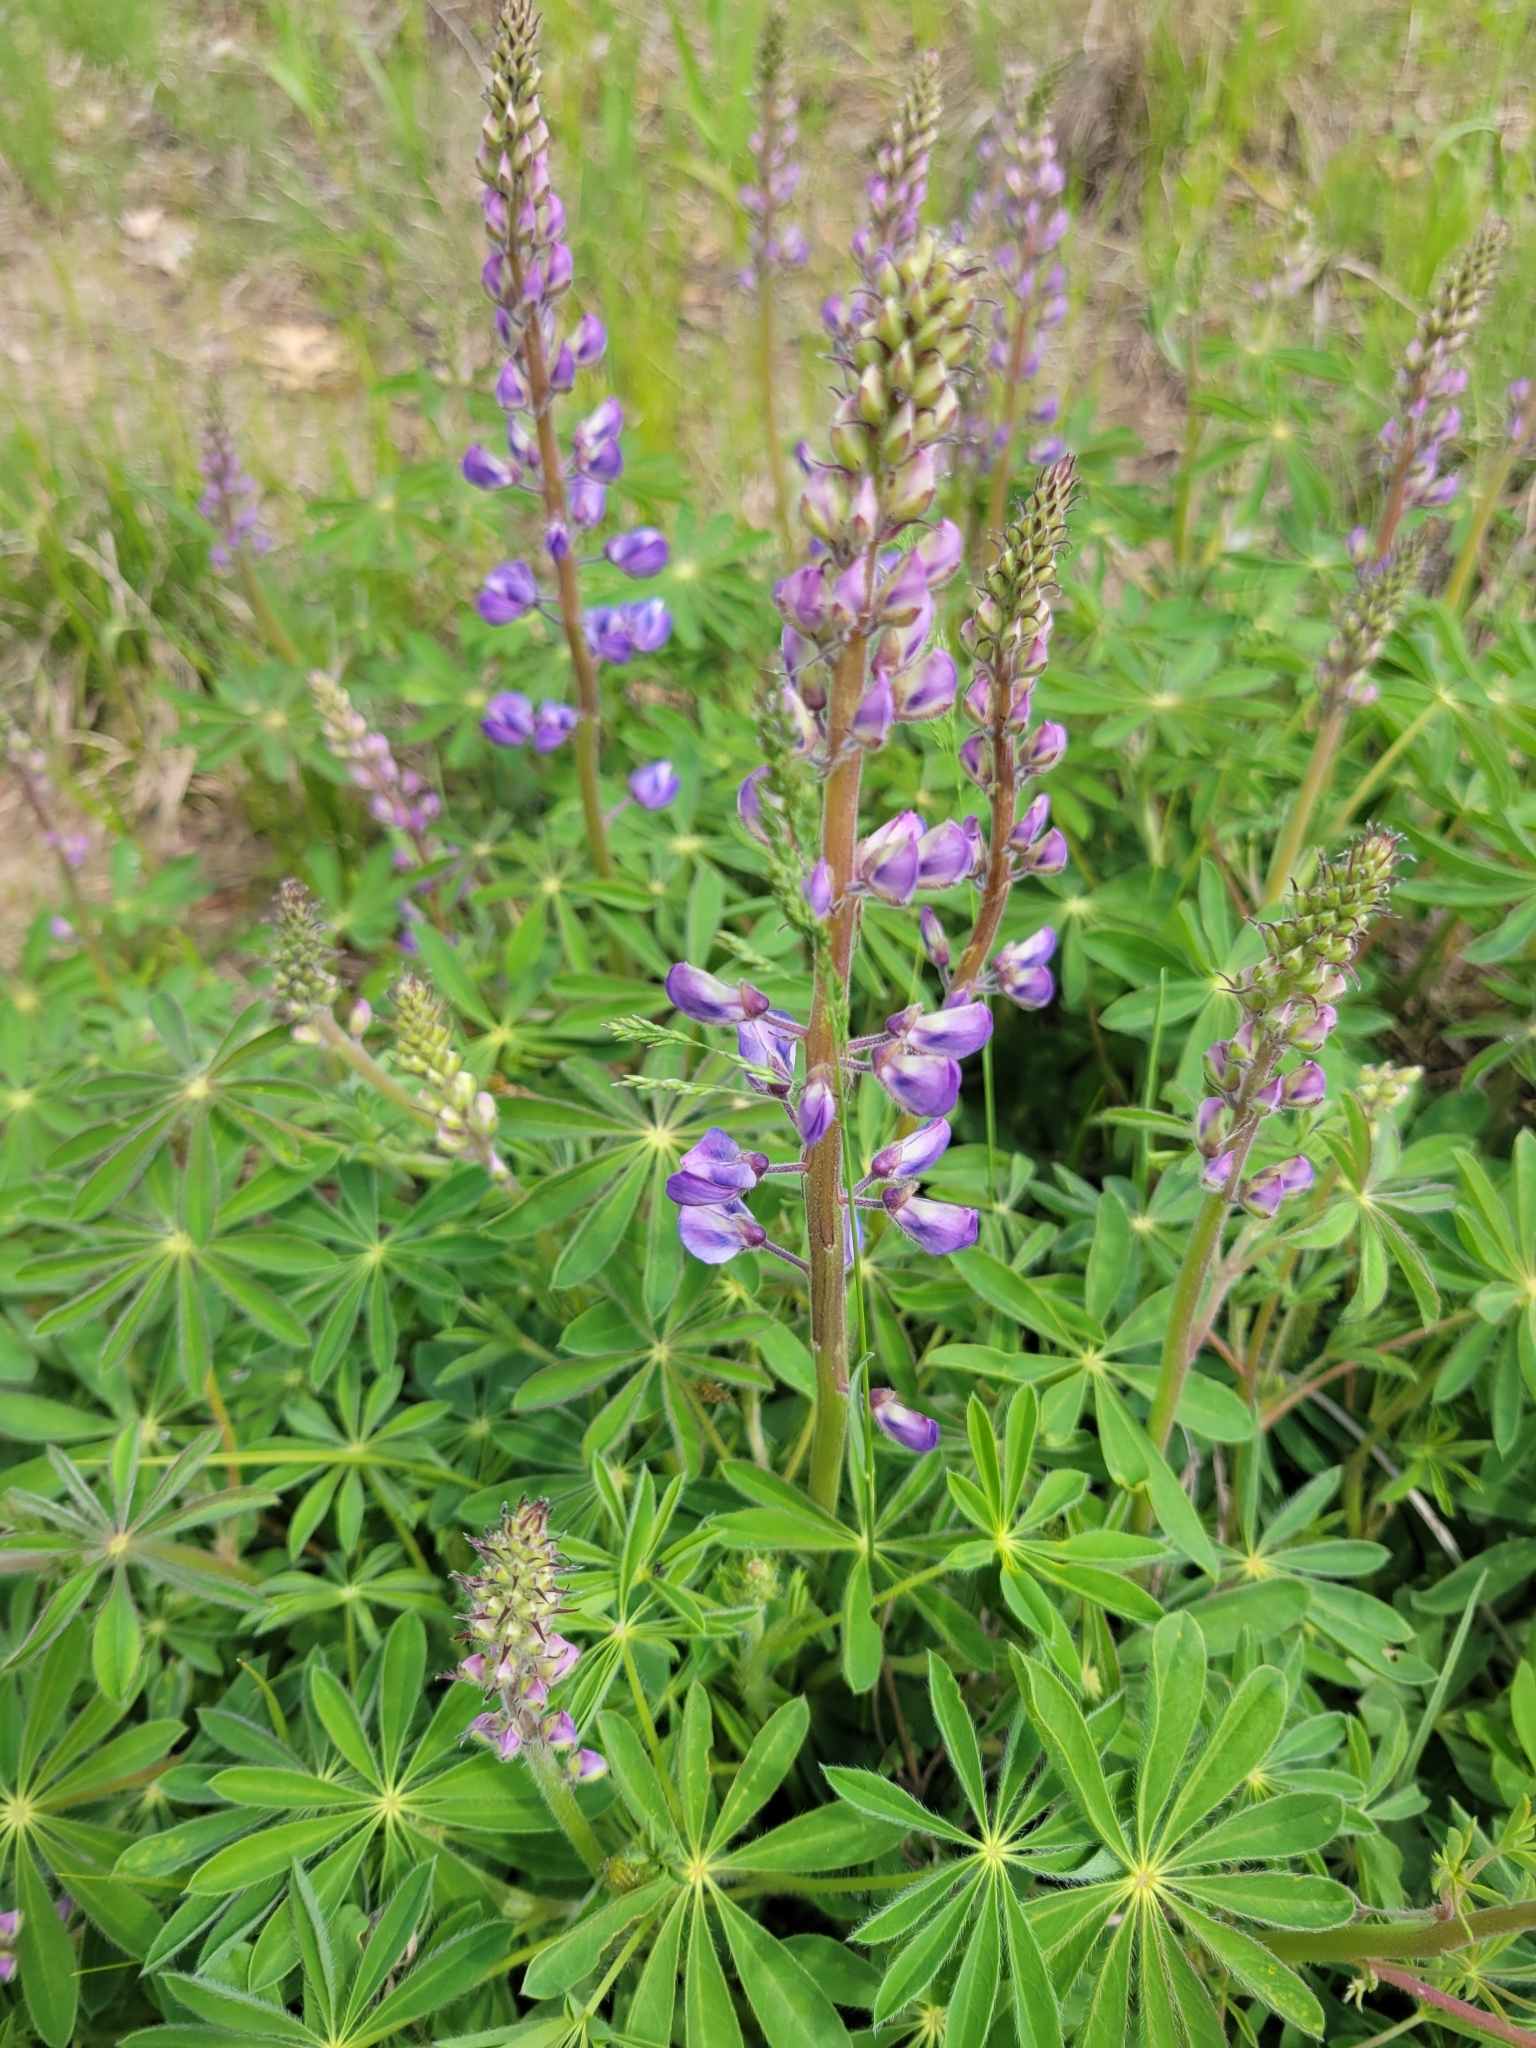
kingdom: Plantae
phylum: Tracheophyta
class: Magnoliopsida
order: Fabales
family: Fabaceae
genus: Lupinus
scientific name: Lupinus perennis
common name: Sundial lupine
